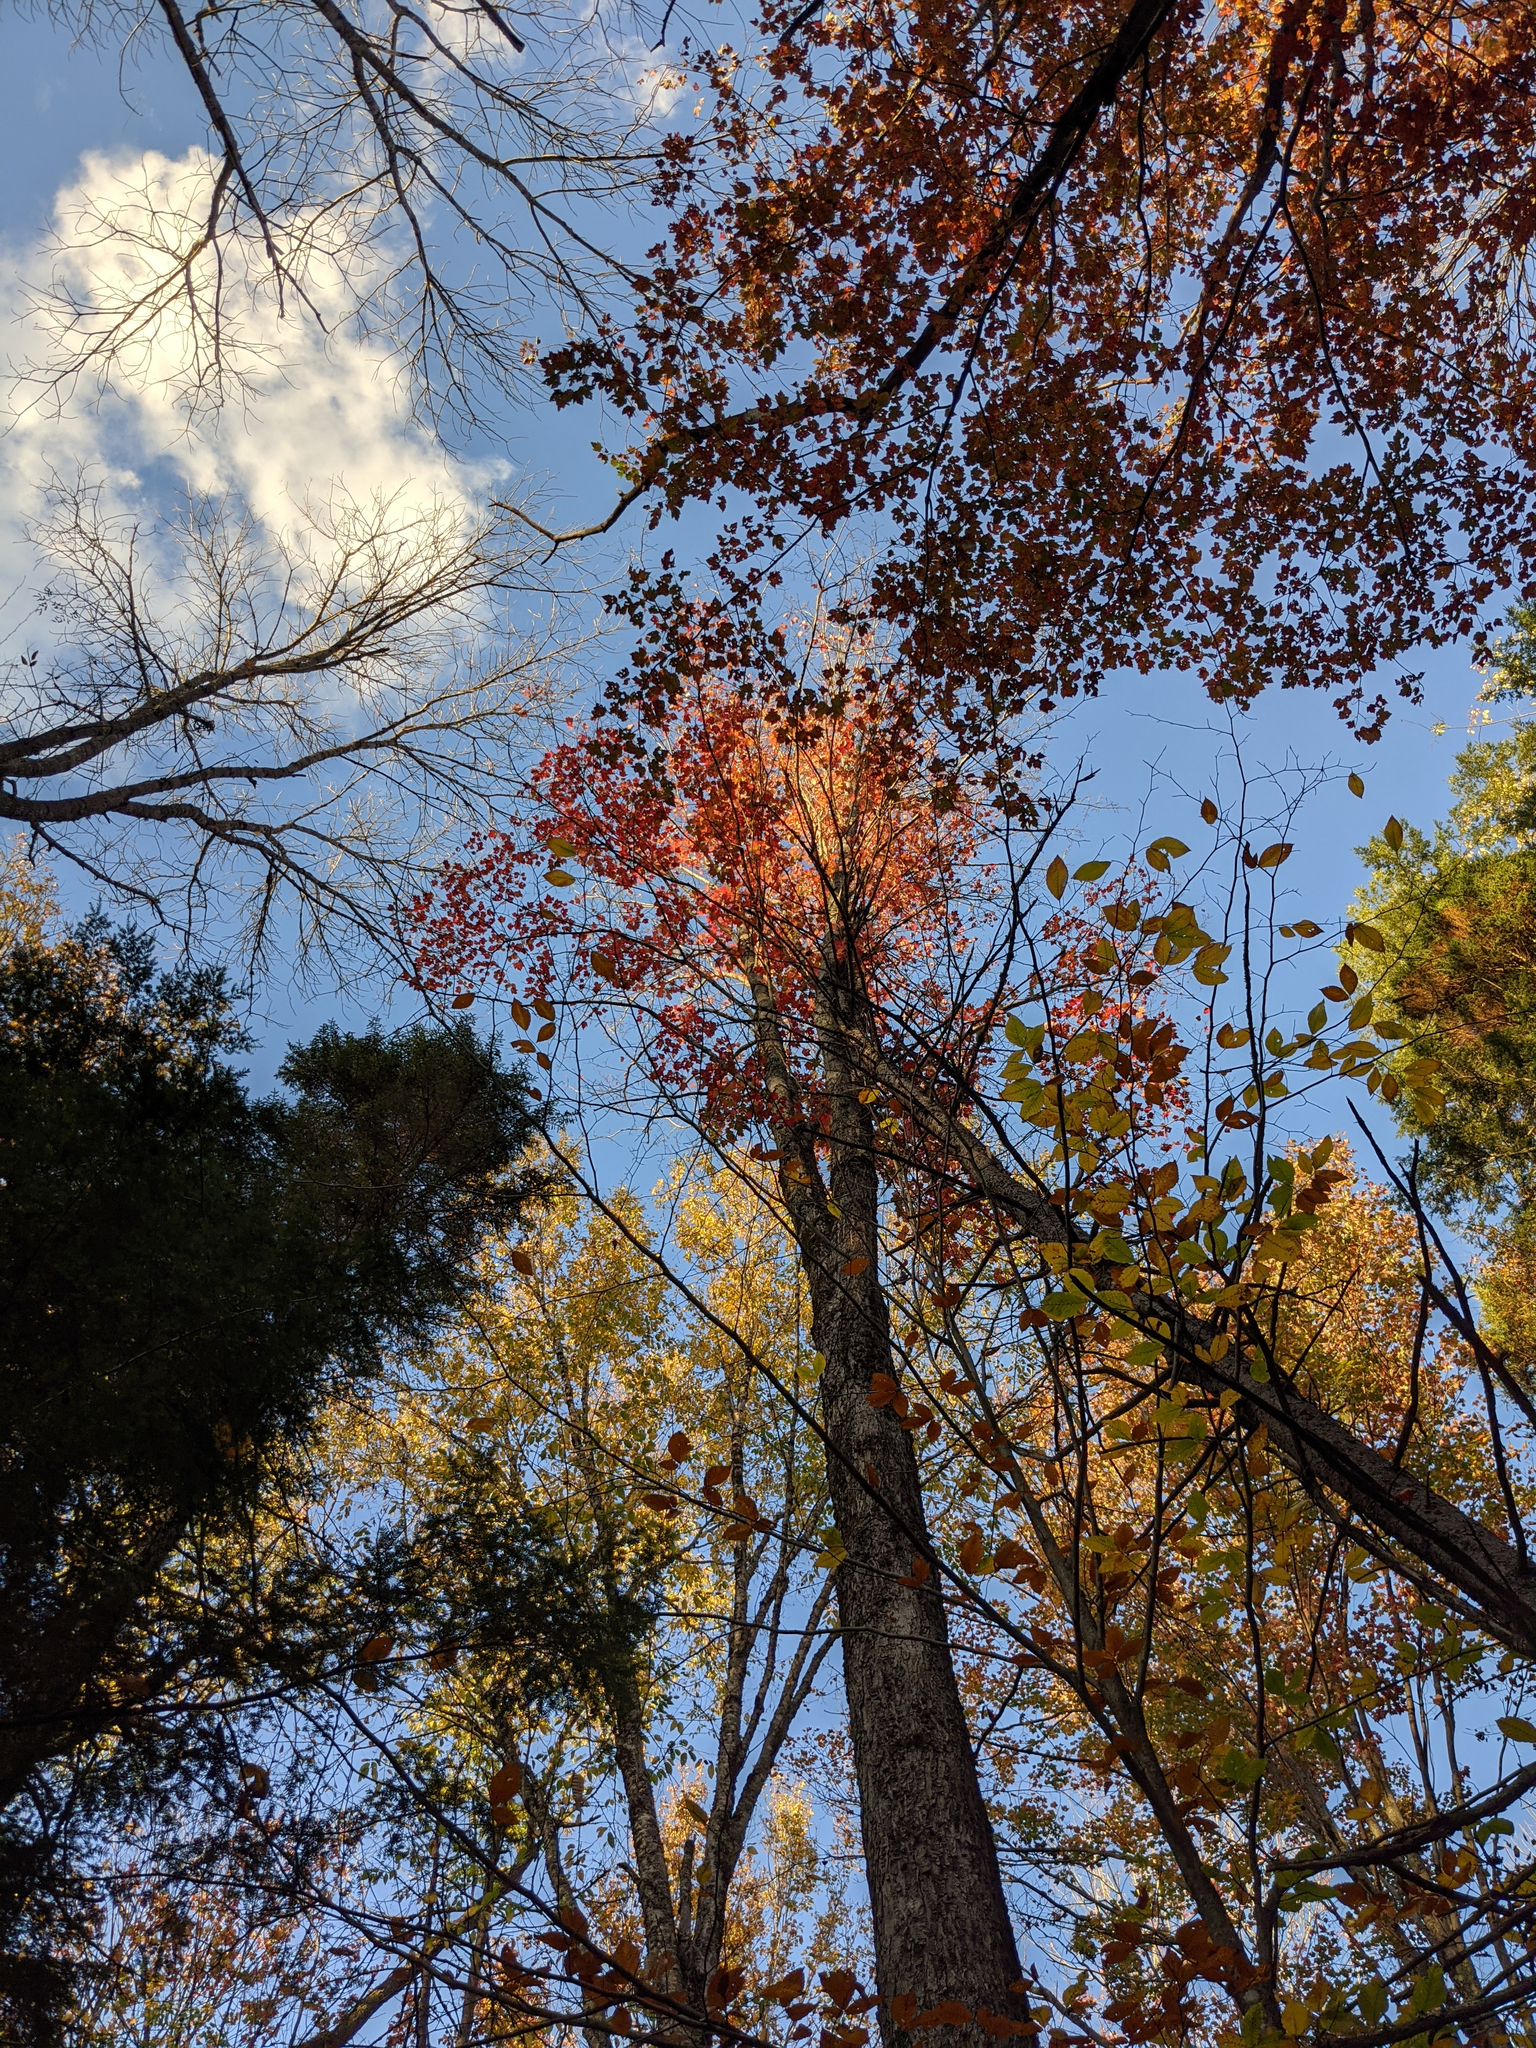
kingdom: Plantae
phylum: Tracheophyta
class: Magnoliopsida
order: Sapindales
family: Sapindaceae
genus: Acer
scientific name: Acer rubrum
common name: Red maple
